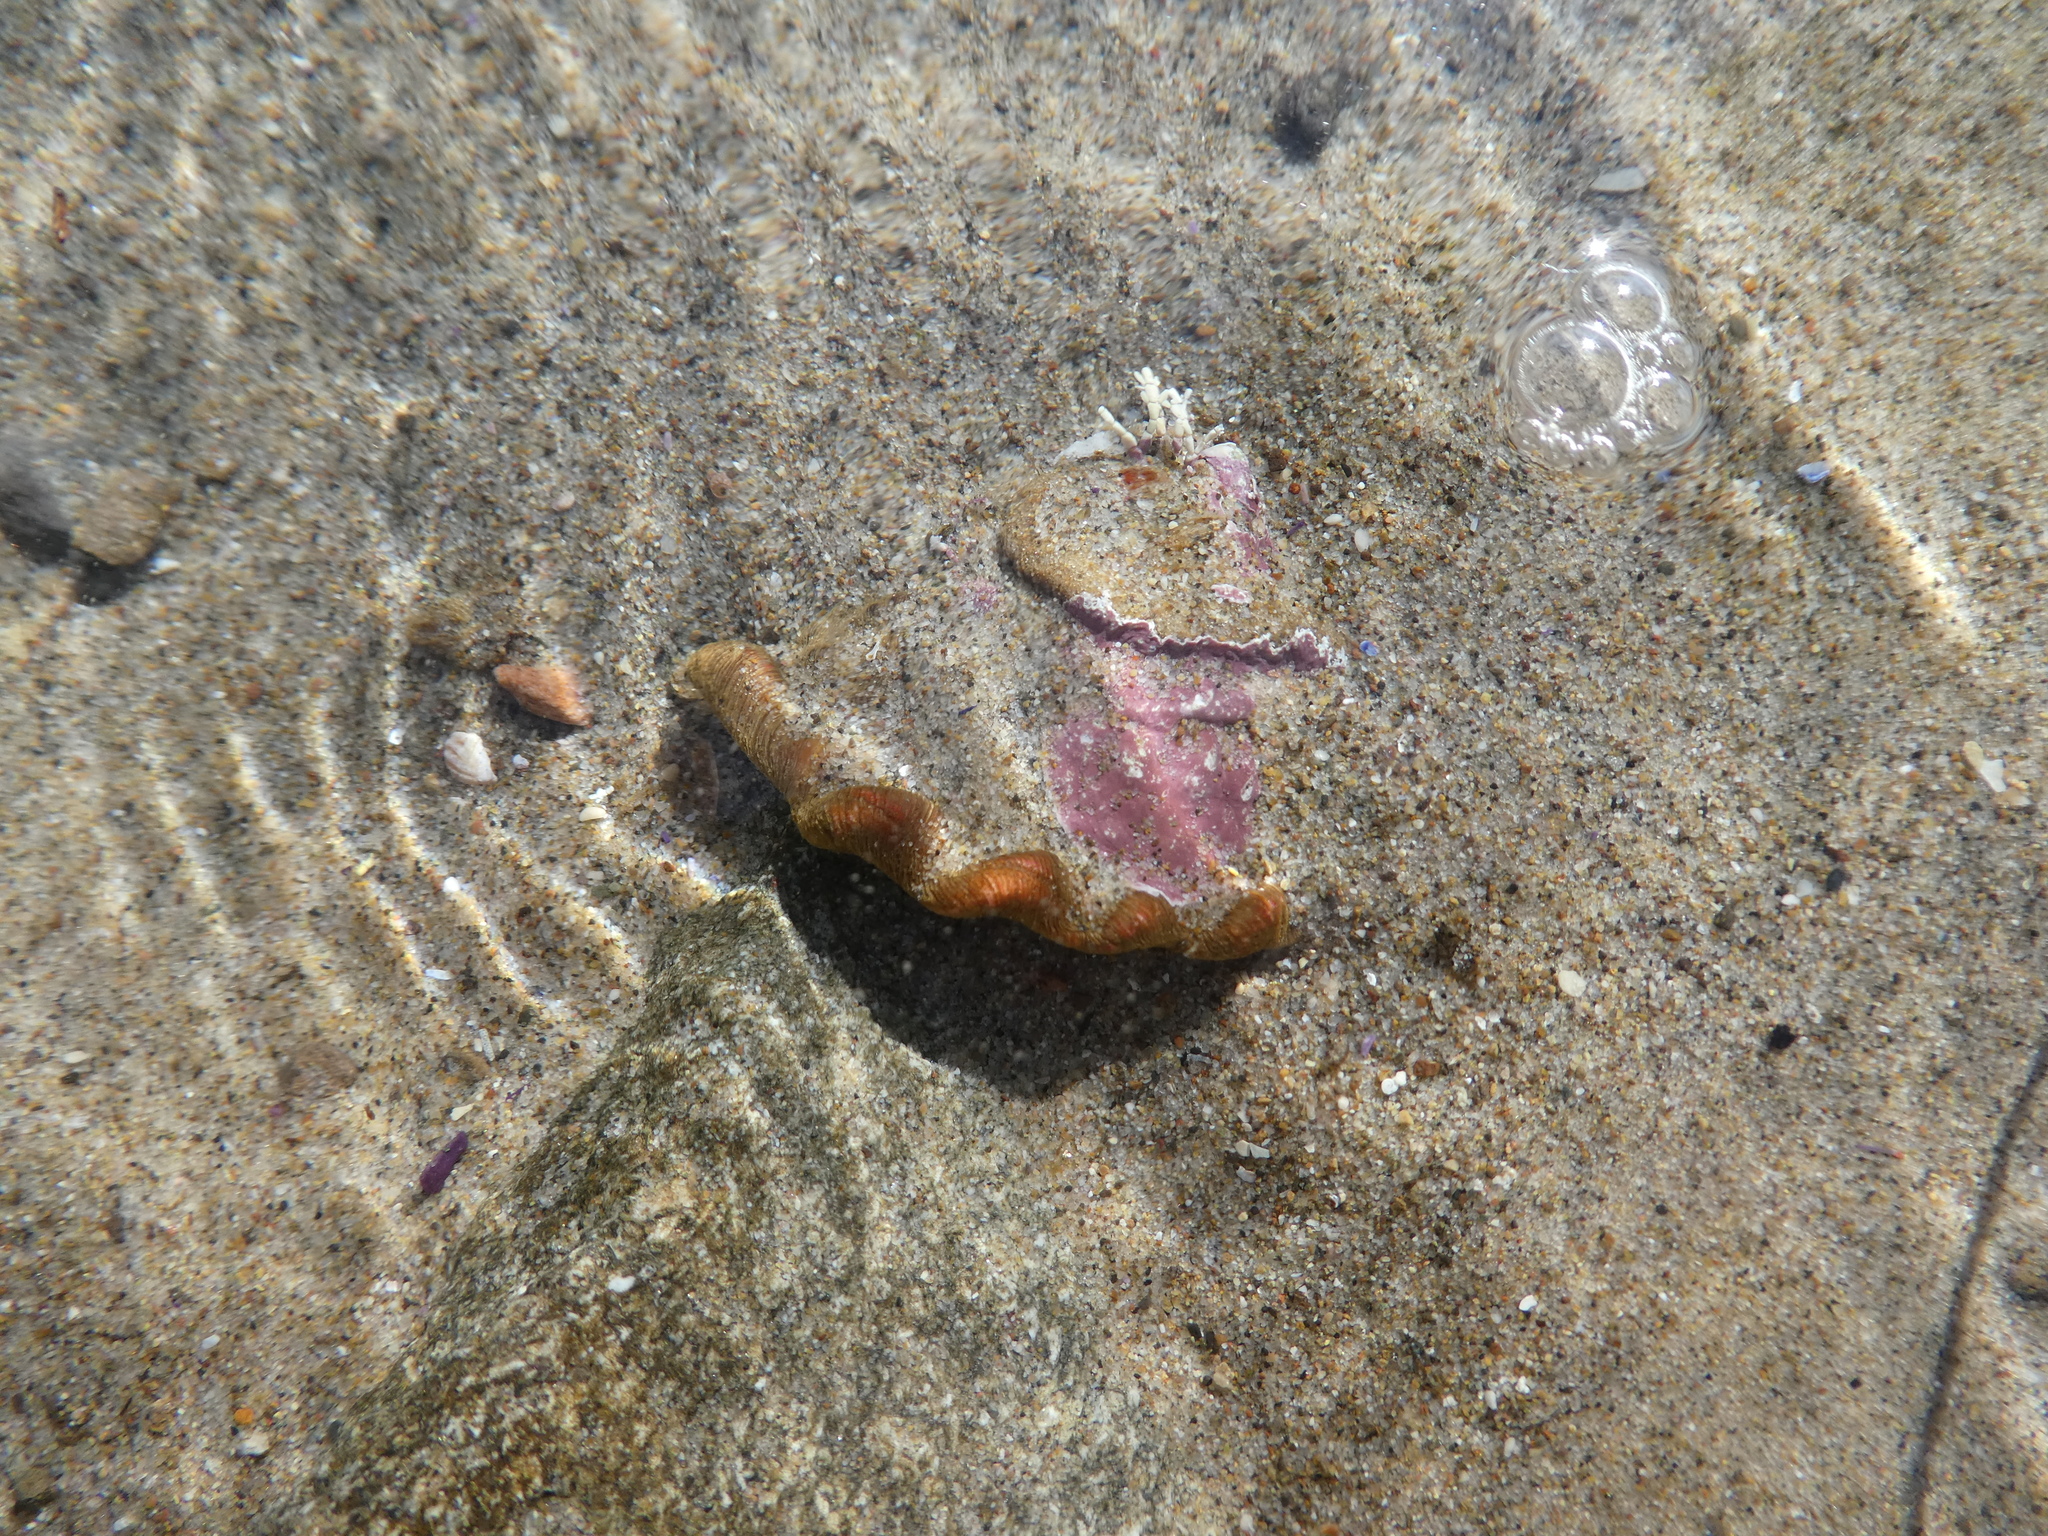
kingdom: Animalia
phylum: Mollusca
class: Gastropoda
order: Trochida
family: Turbinidae
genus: Megastraea
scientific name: Megastraea undosa
